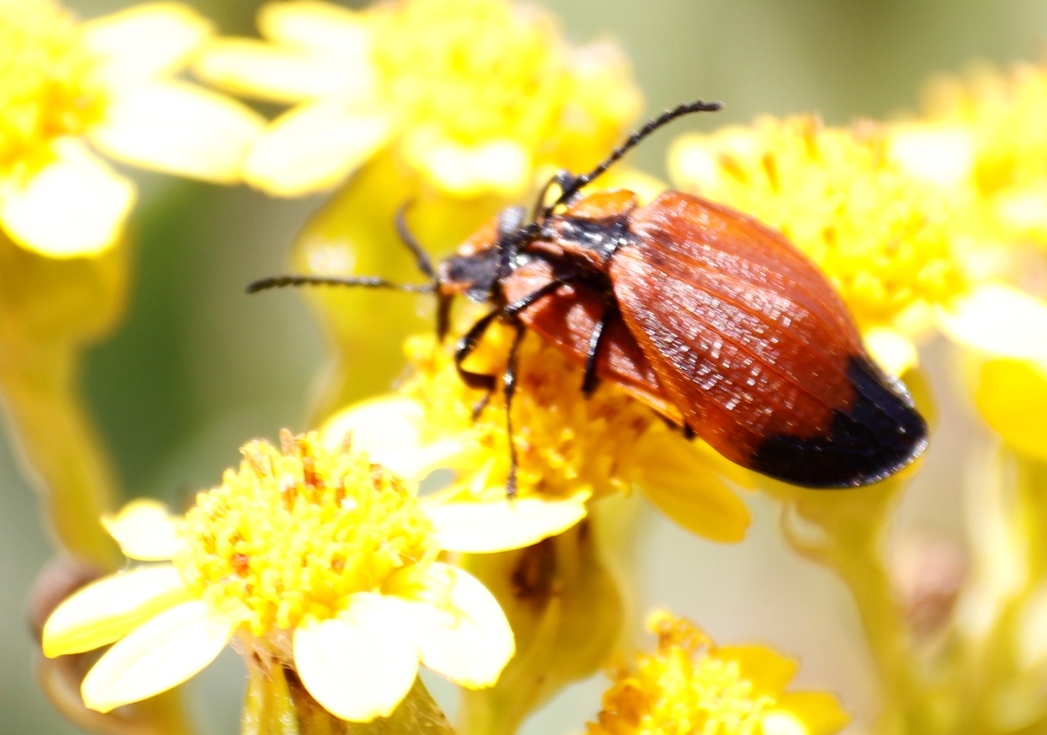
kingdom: Animalia
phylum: Arthropoda
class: Insecta
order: Coleoptera
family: Lycidae
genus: Lycus
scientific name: Lycus
